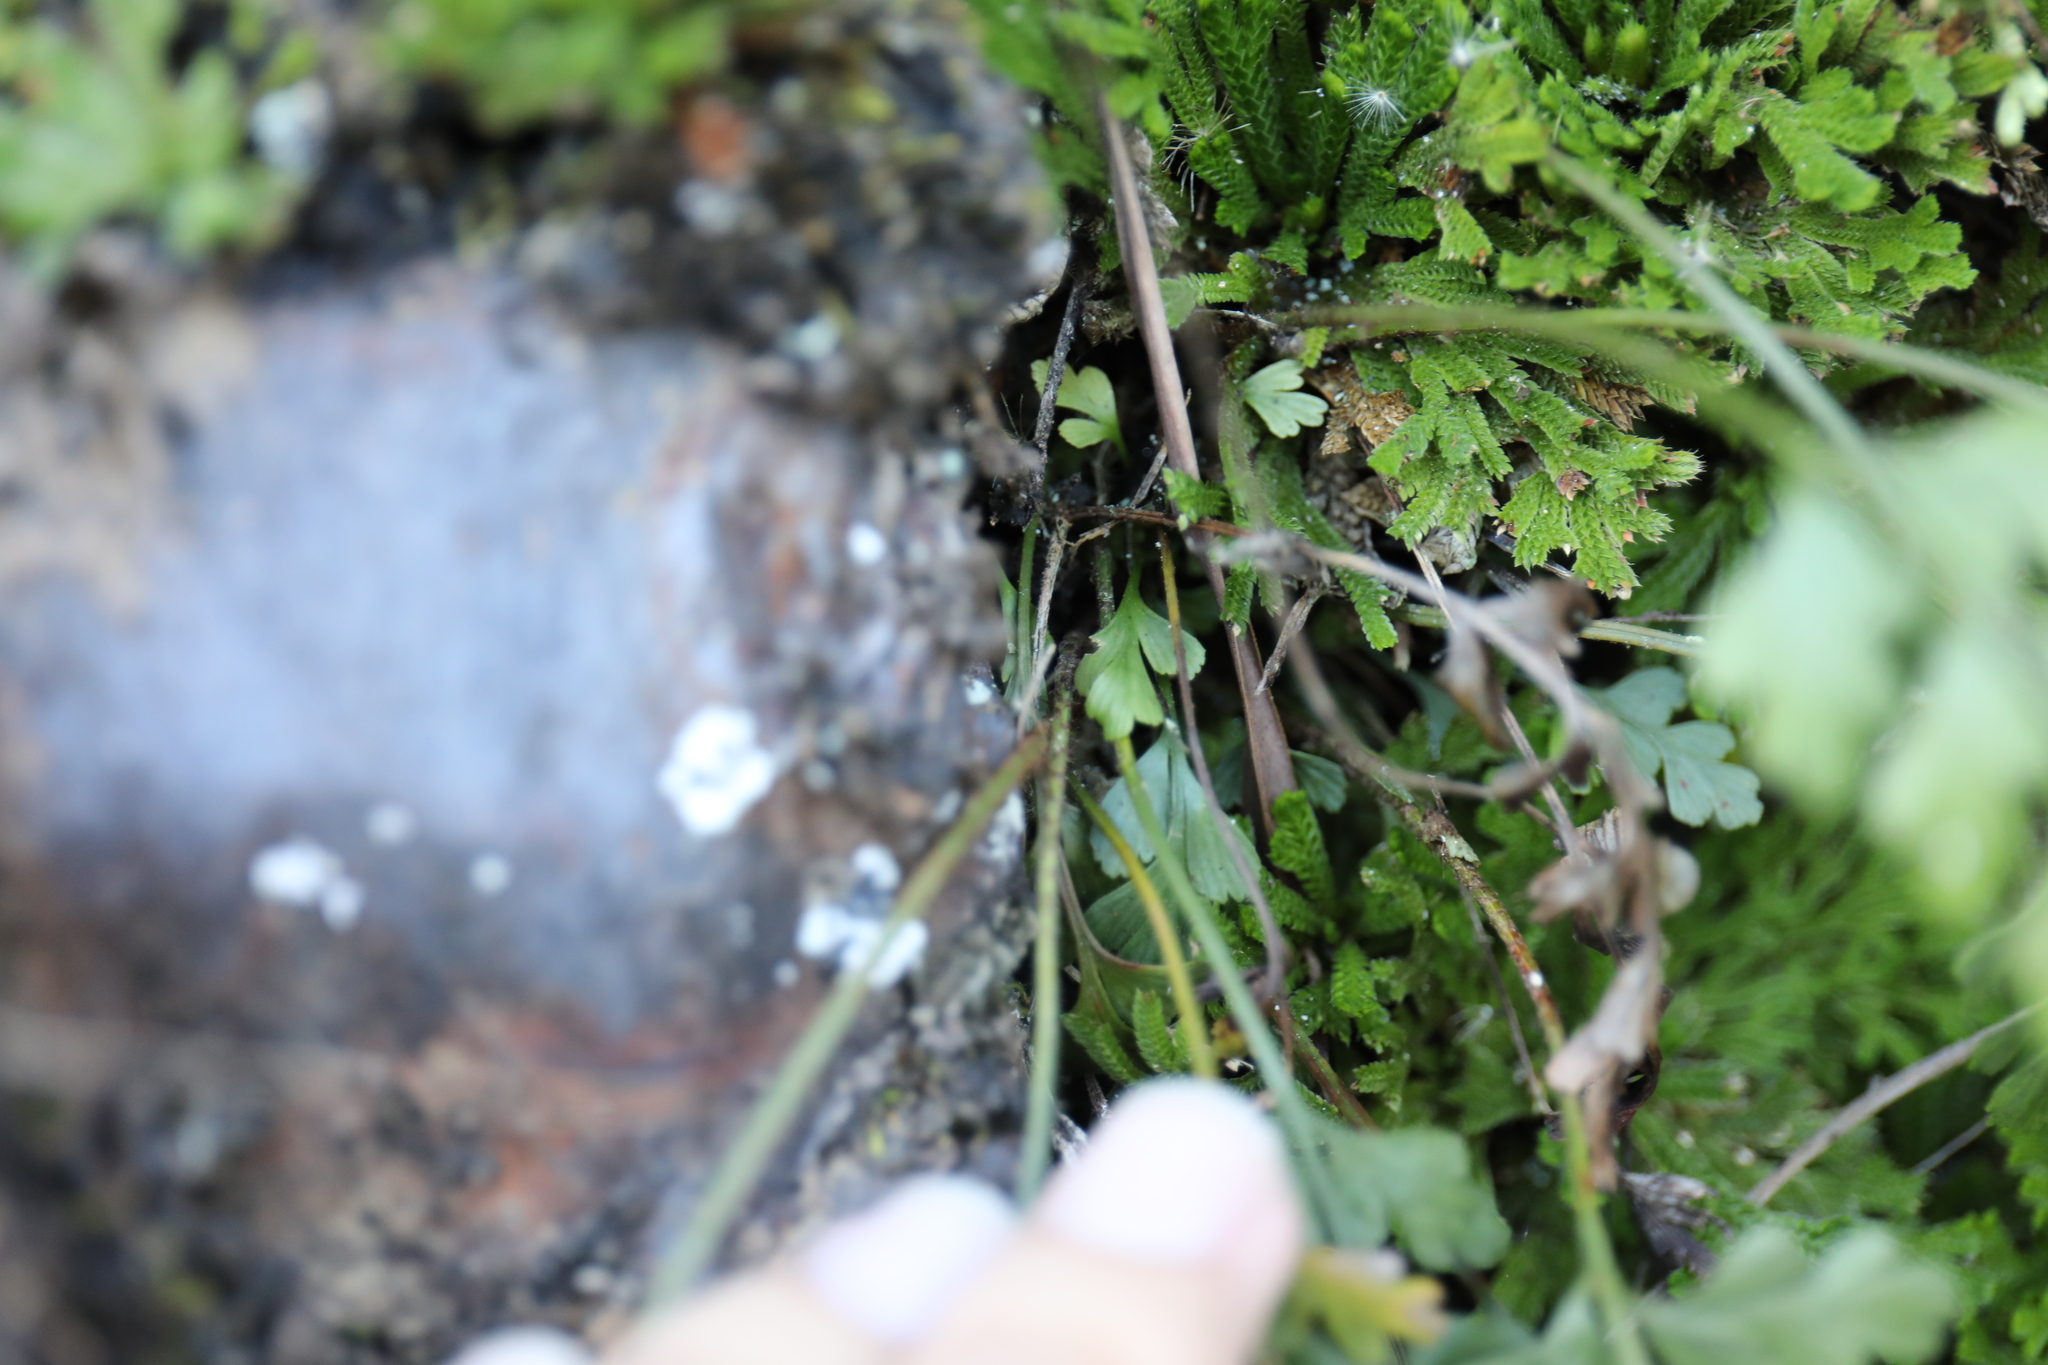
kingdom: Plantae
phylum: Tracheophyta
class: Polypodiopsida
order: Polypodiales
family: Aspleniaceae
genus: Asplenium
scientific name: Asplenium oldhamii
